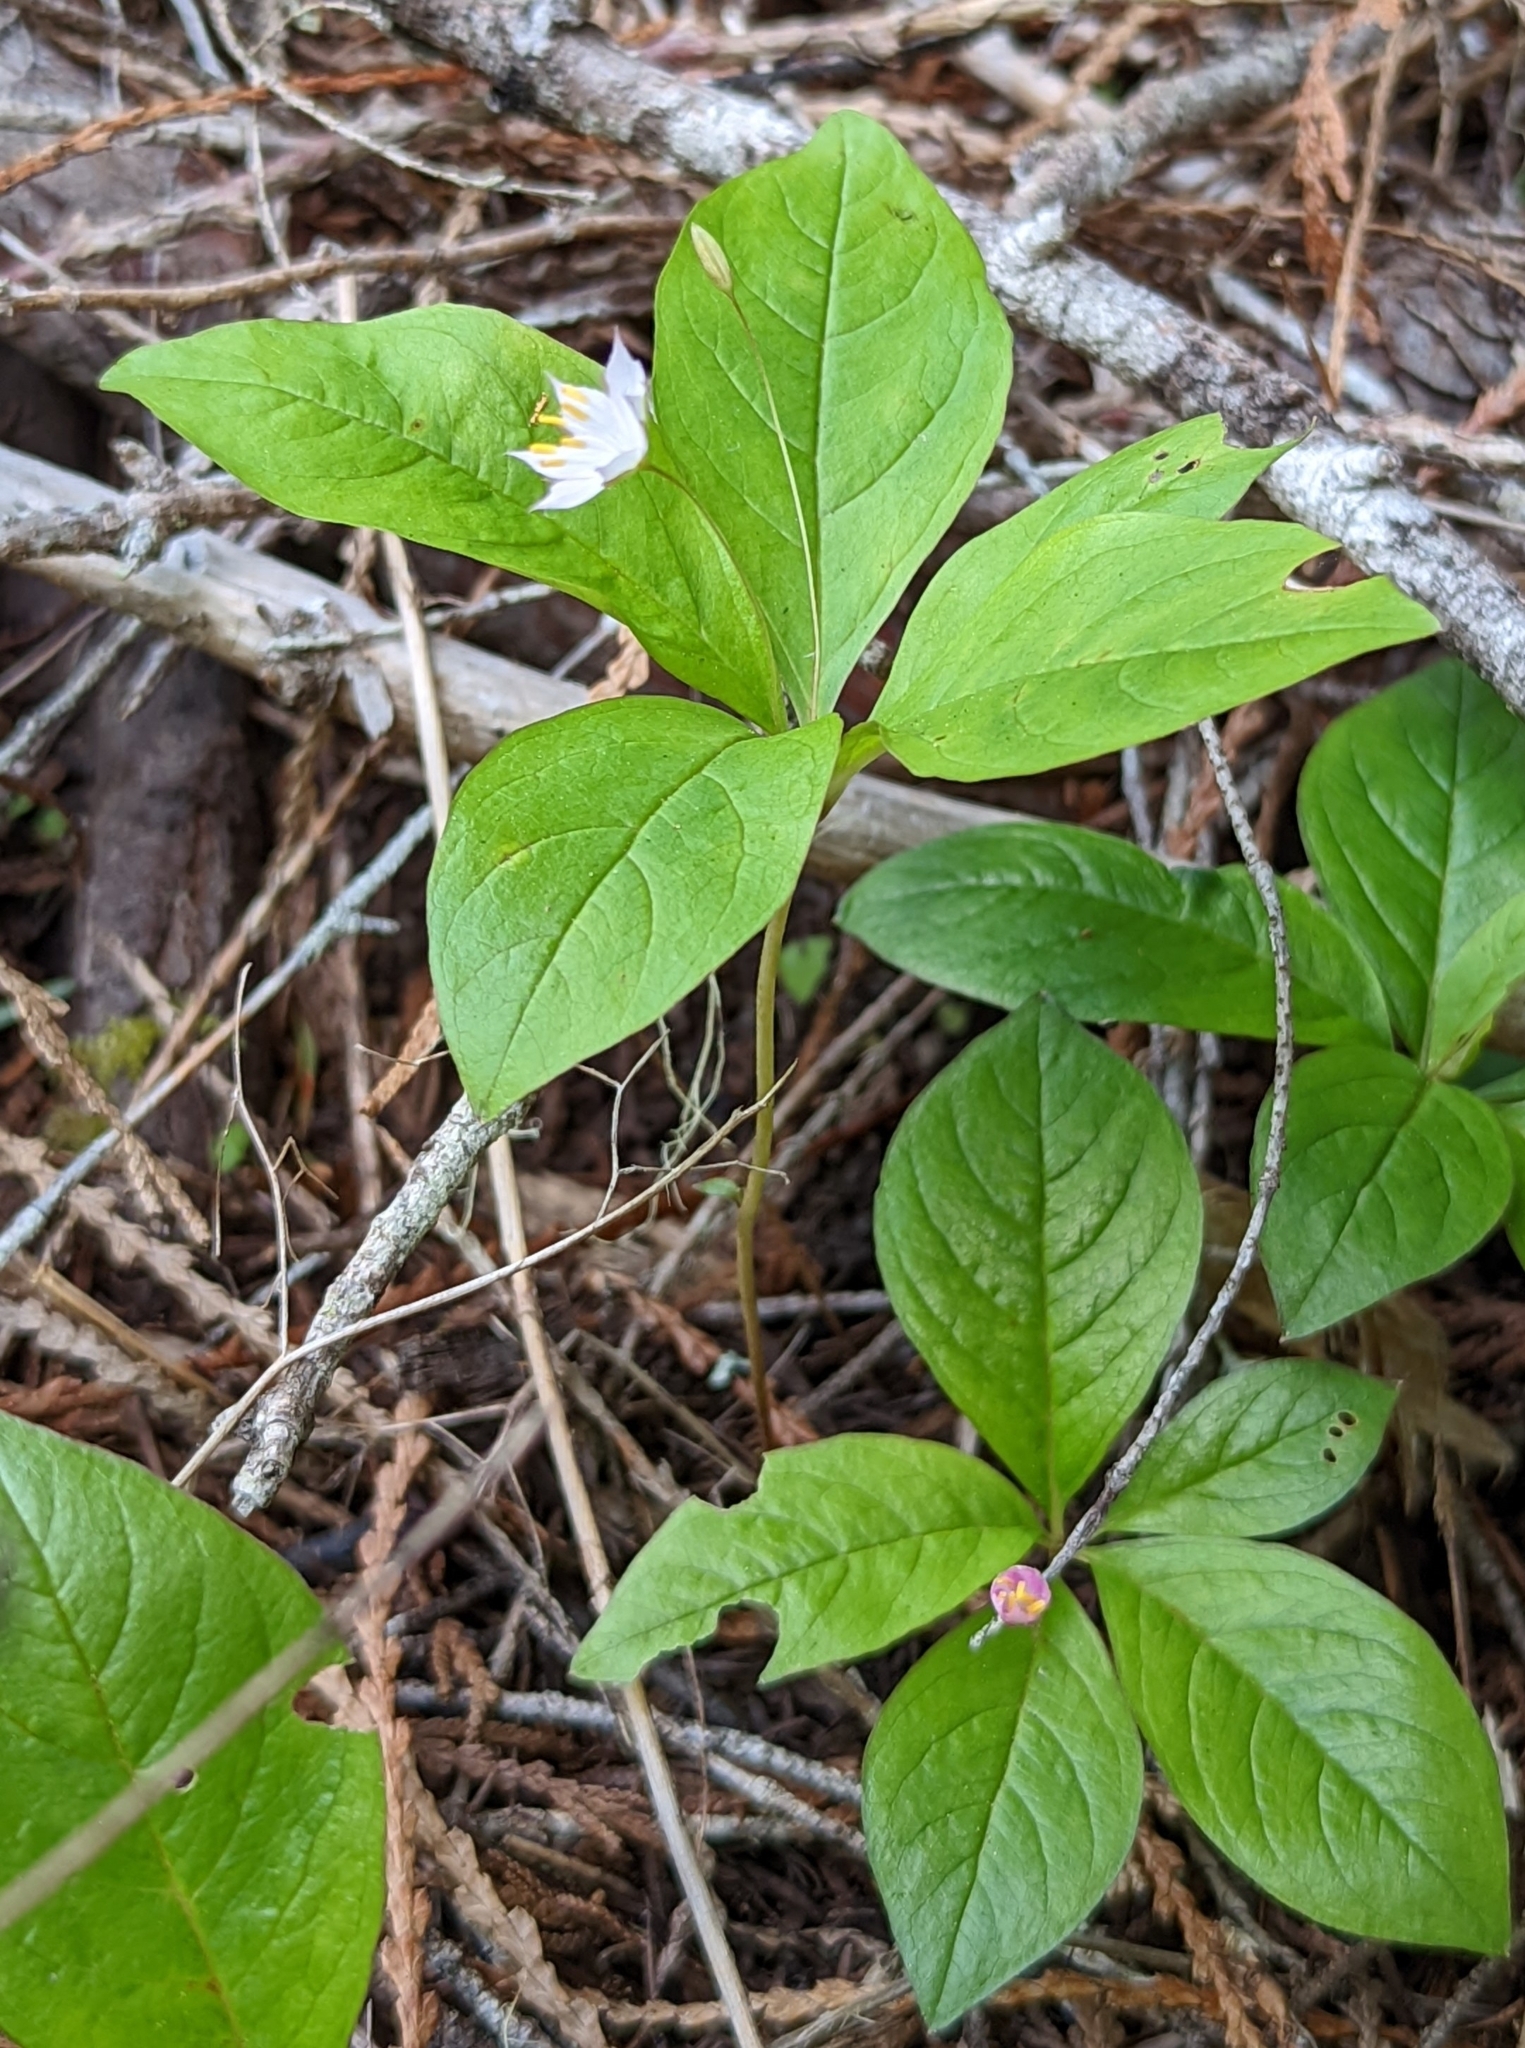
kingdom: Plantae
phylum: Tracheophyta
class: Magnoliopsida
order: Ericales
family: Primulaceae
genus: Lysimachia
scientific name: Lysimachia latifolia
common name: Pacific starflower
